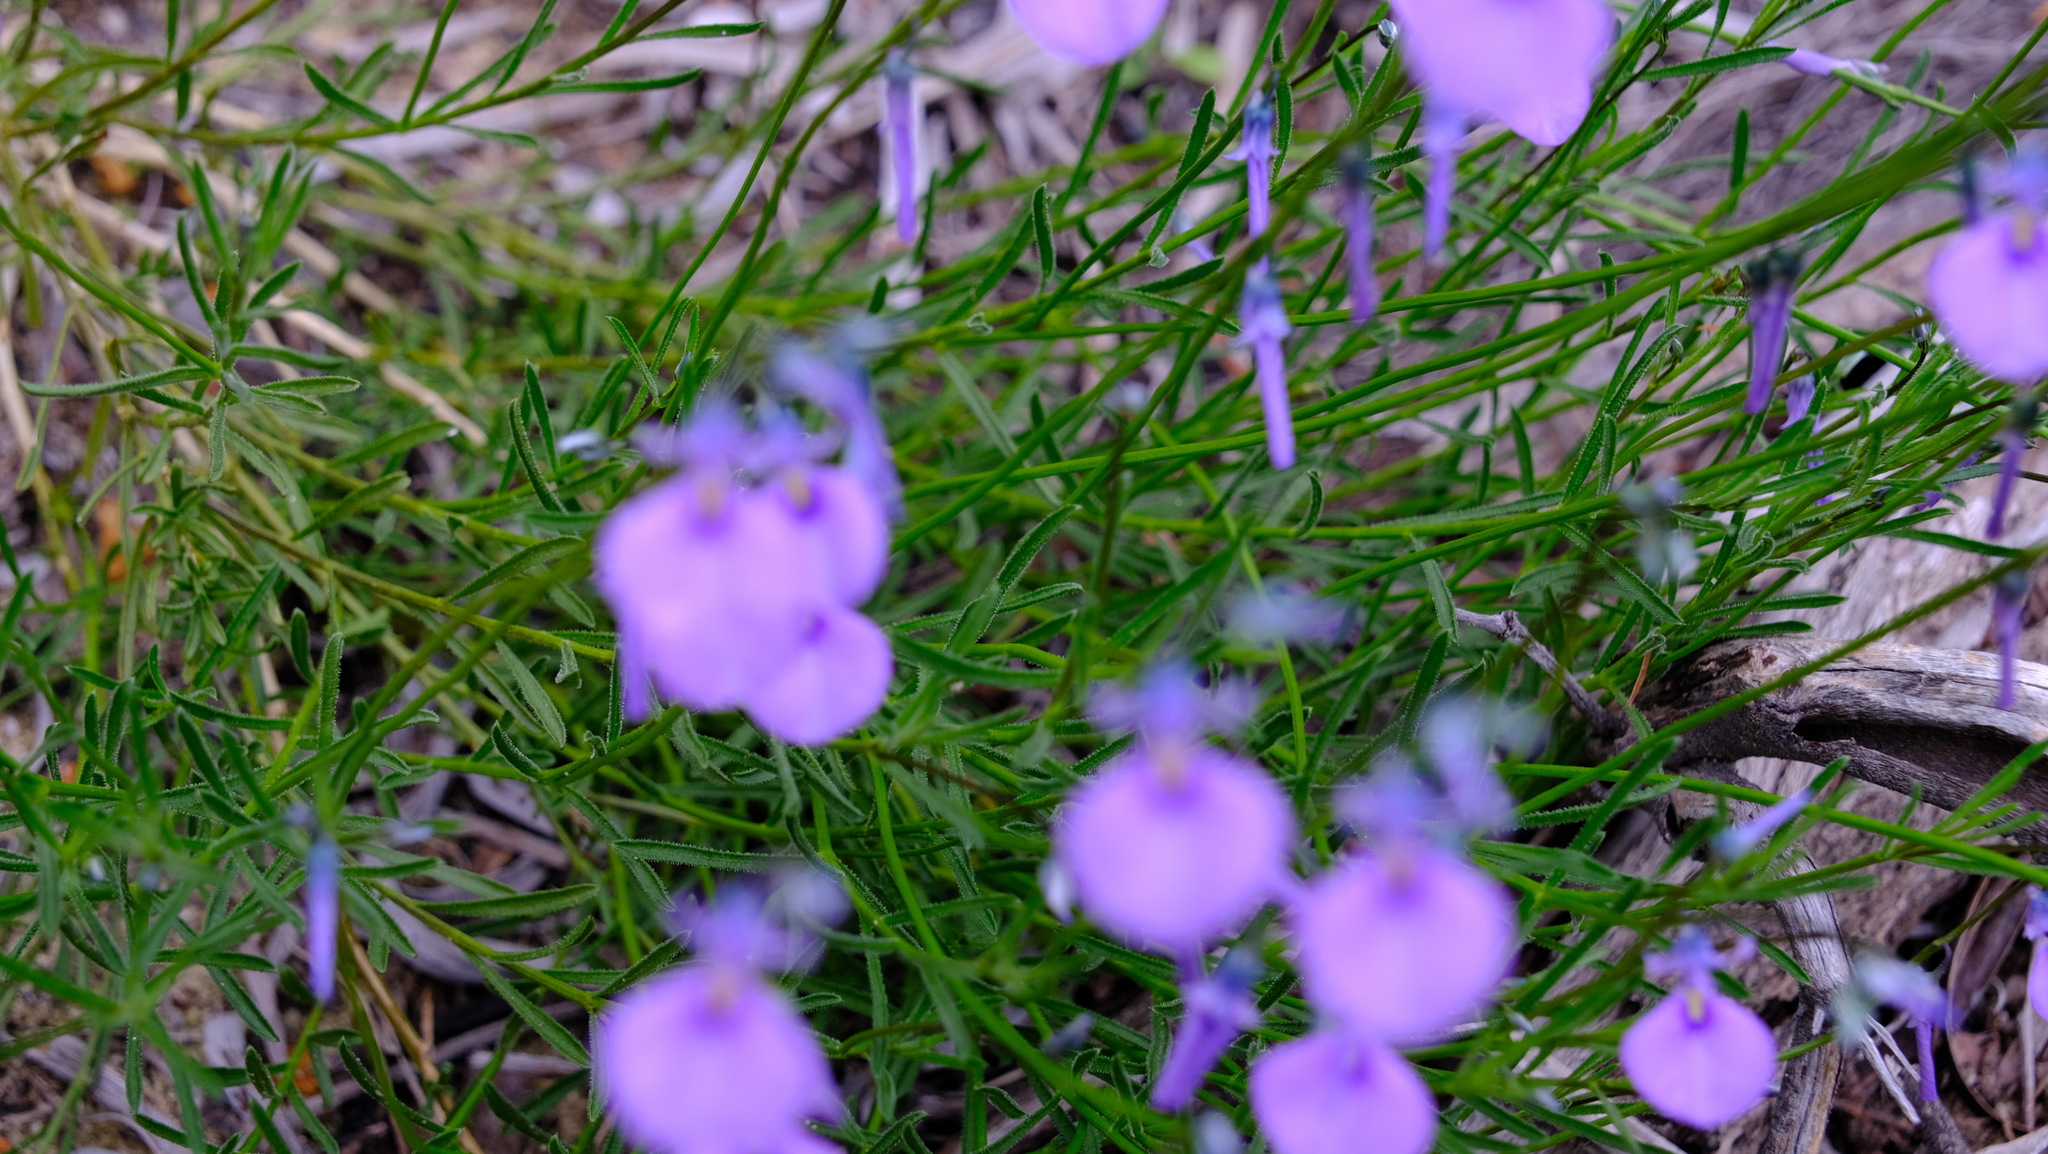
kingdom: Plantae
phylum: Tracheophyta
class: Magnoliopsida
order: Malpighiales
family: Violaceae
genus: Pigea
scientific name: Pigea calycina
